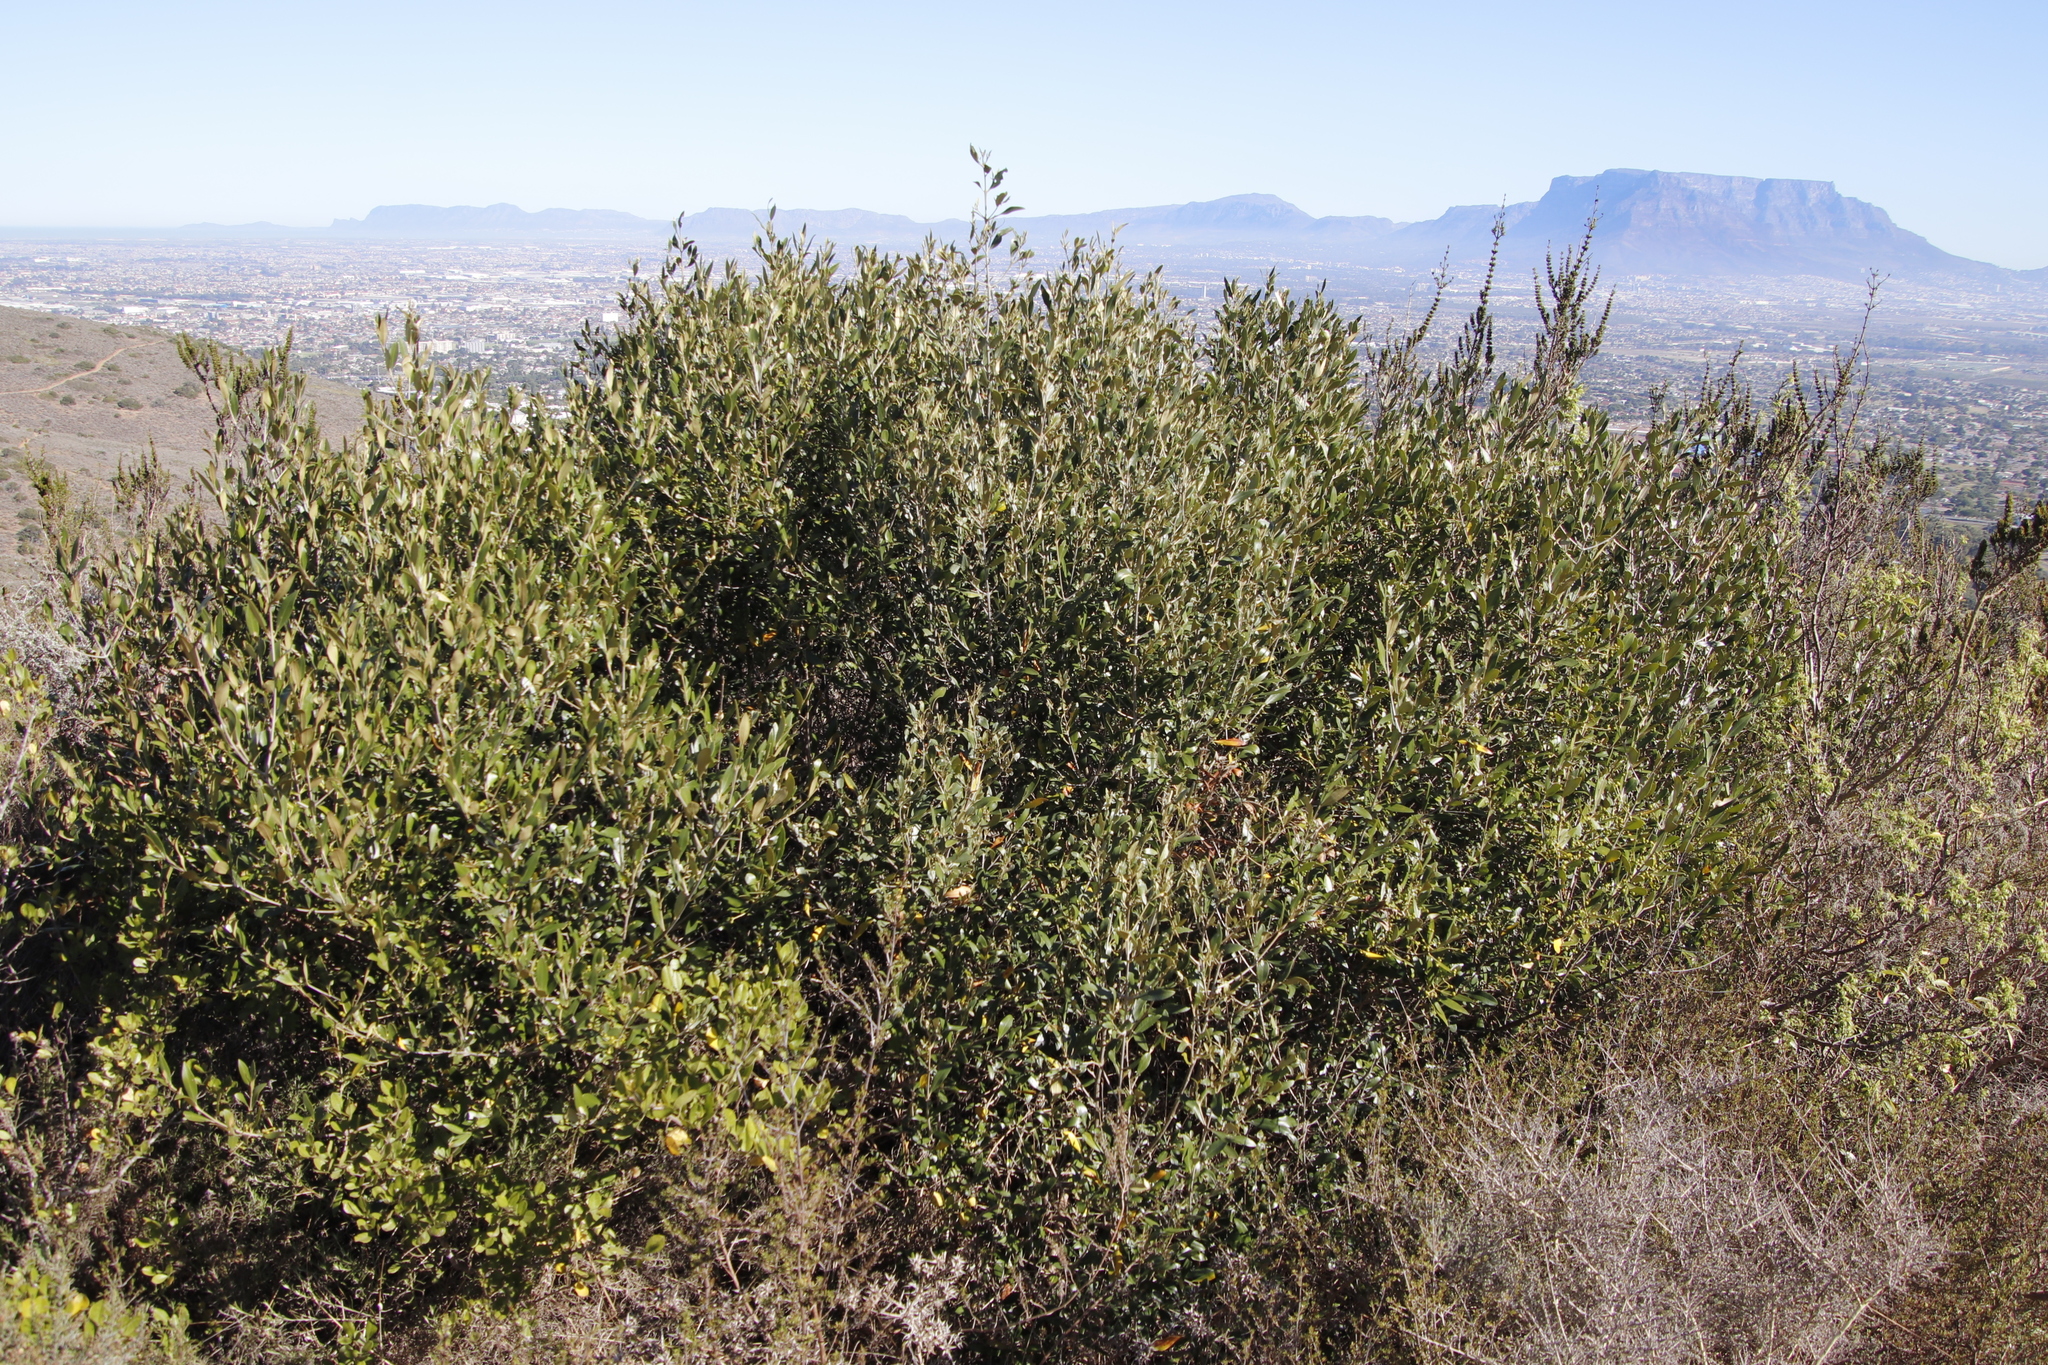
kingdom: Plantae
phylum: Tracheophyta
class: Magnoliopsida
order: Lamiales
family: Oleaceae
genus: Olea
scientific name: Olea europaea
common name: Olive
